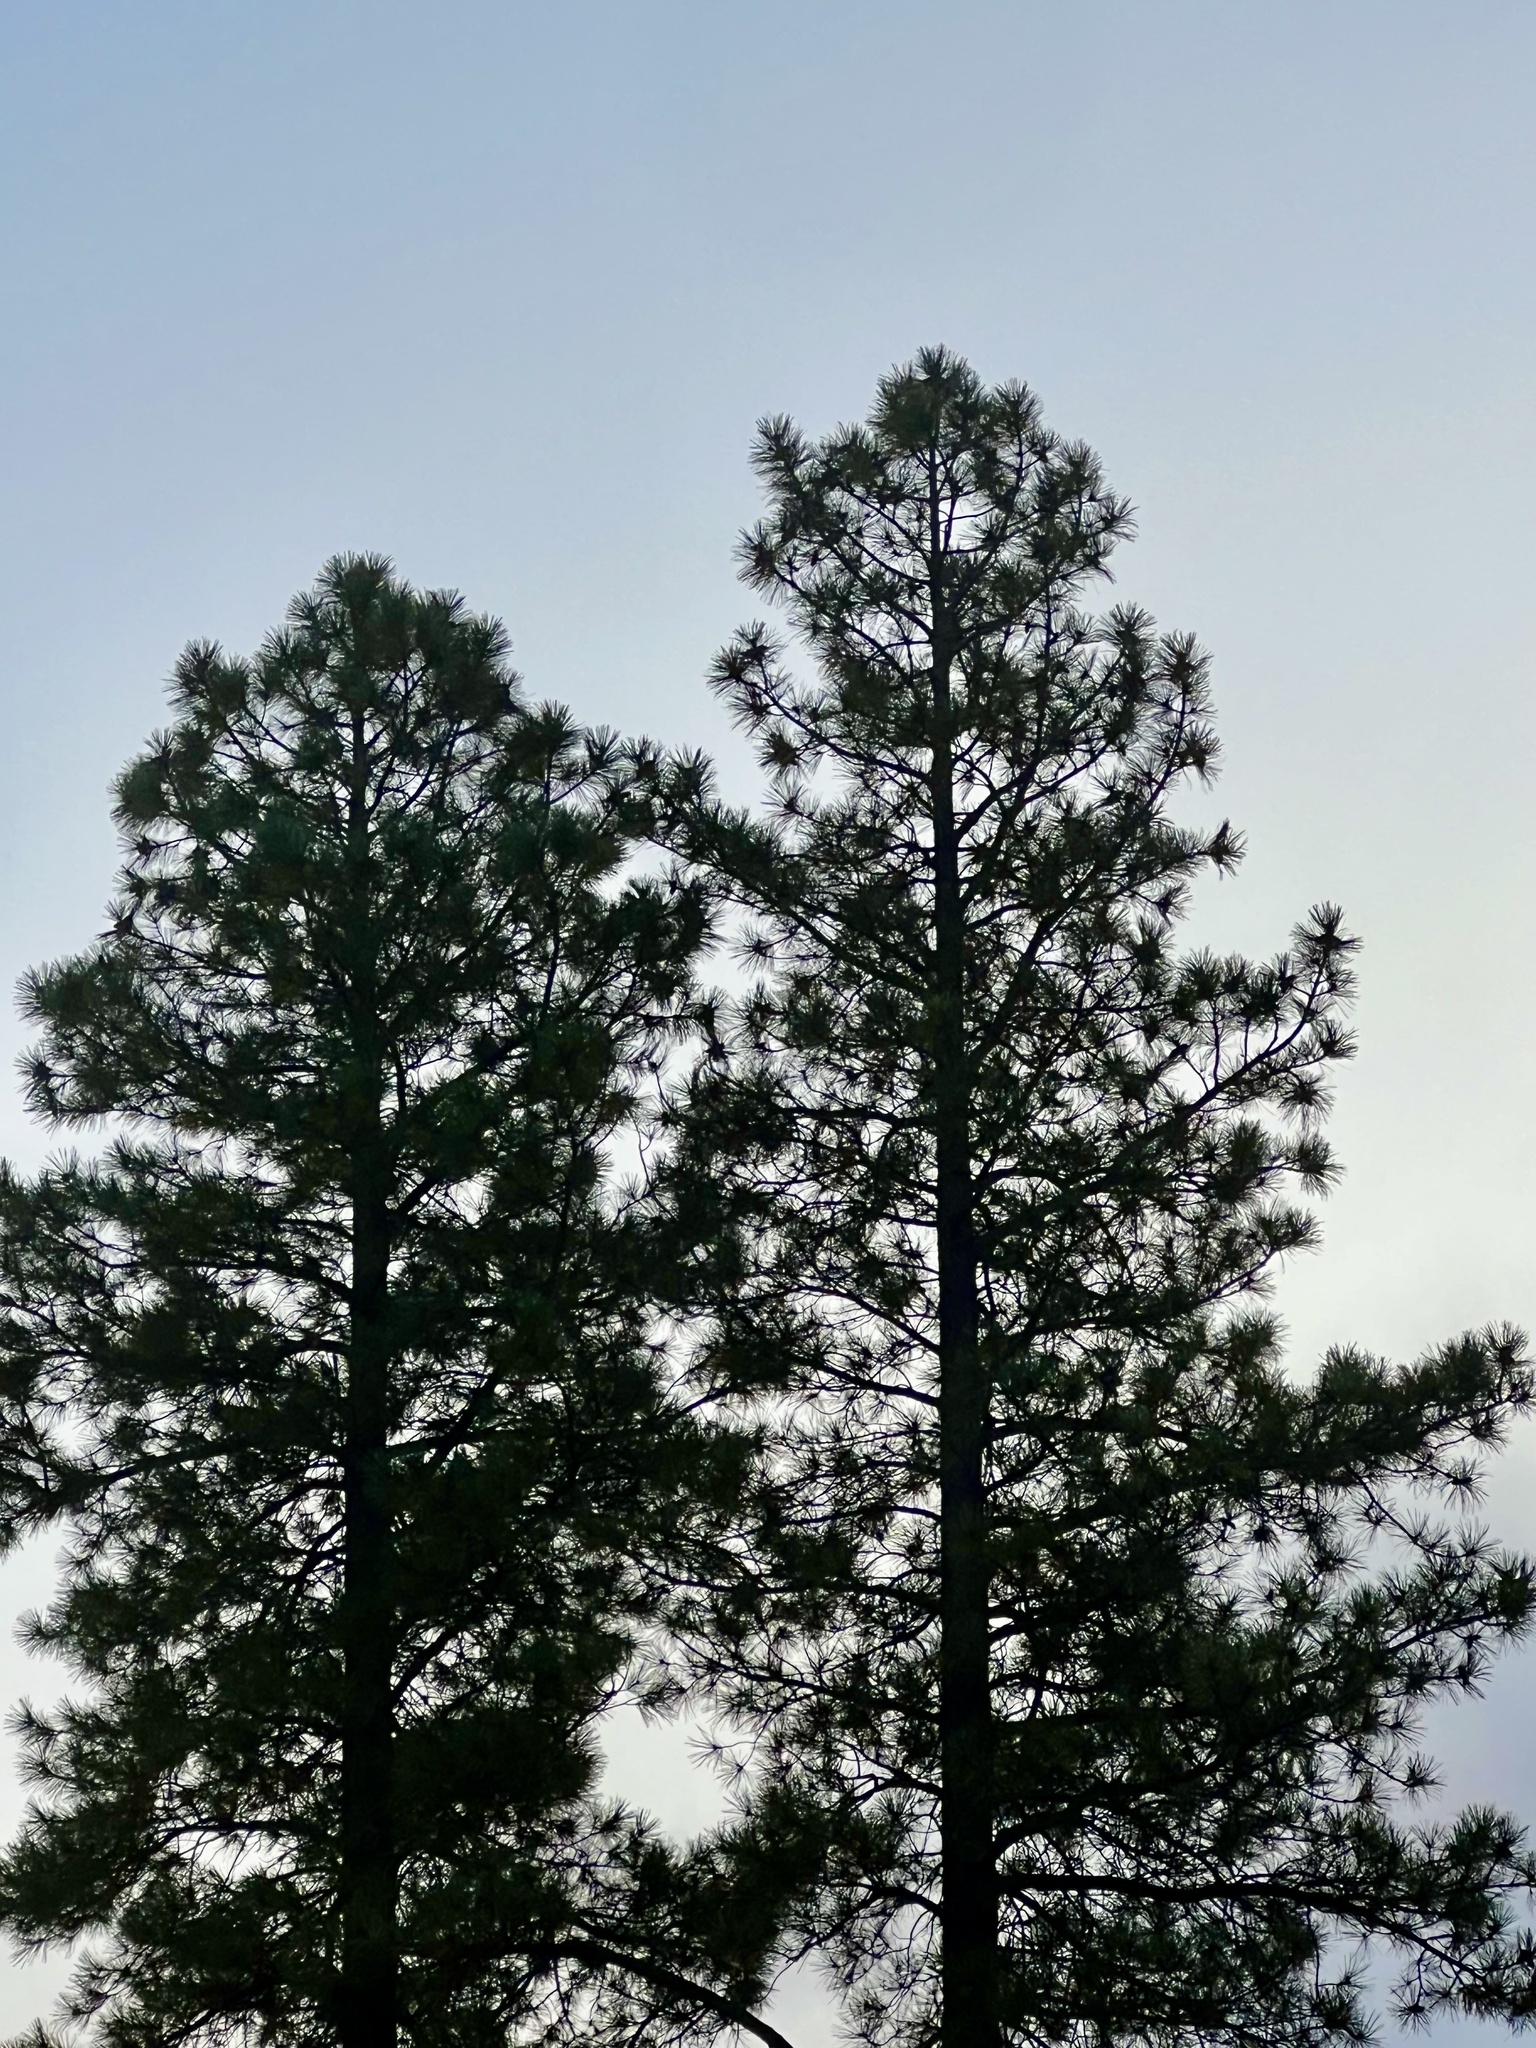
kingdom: Plantae
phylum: Tracheophyta
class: Pinopsida
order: Pinales
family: Pinaceae
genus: Pinus
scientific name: Pinus ponderosa
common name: Western yellow-pine
